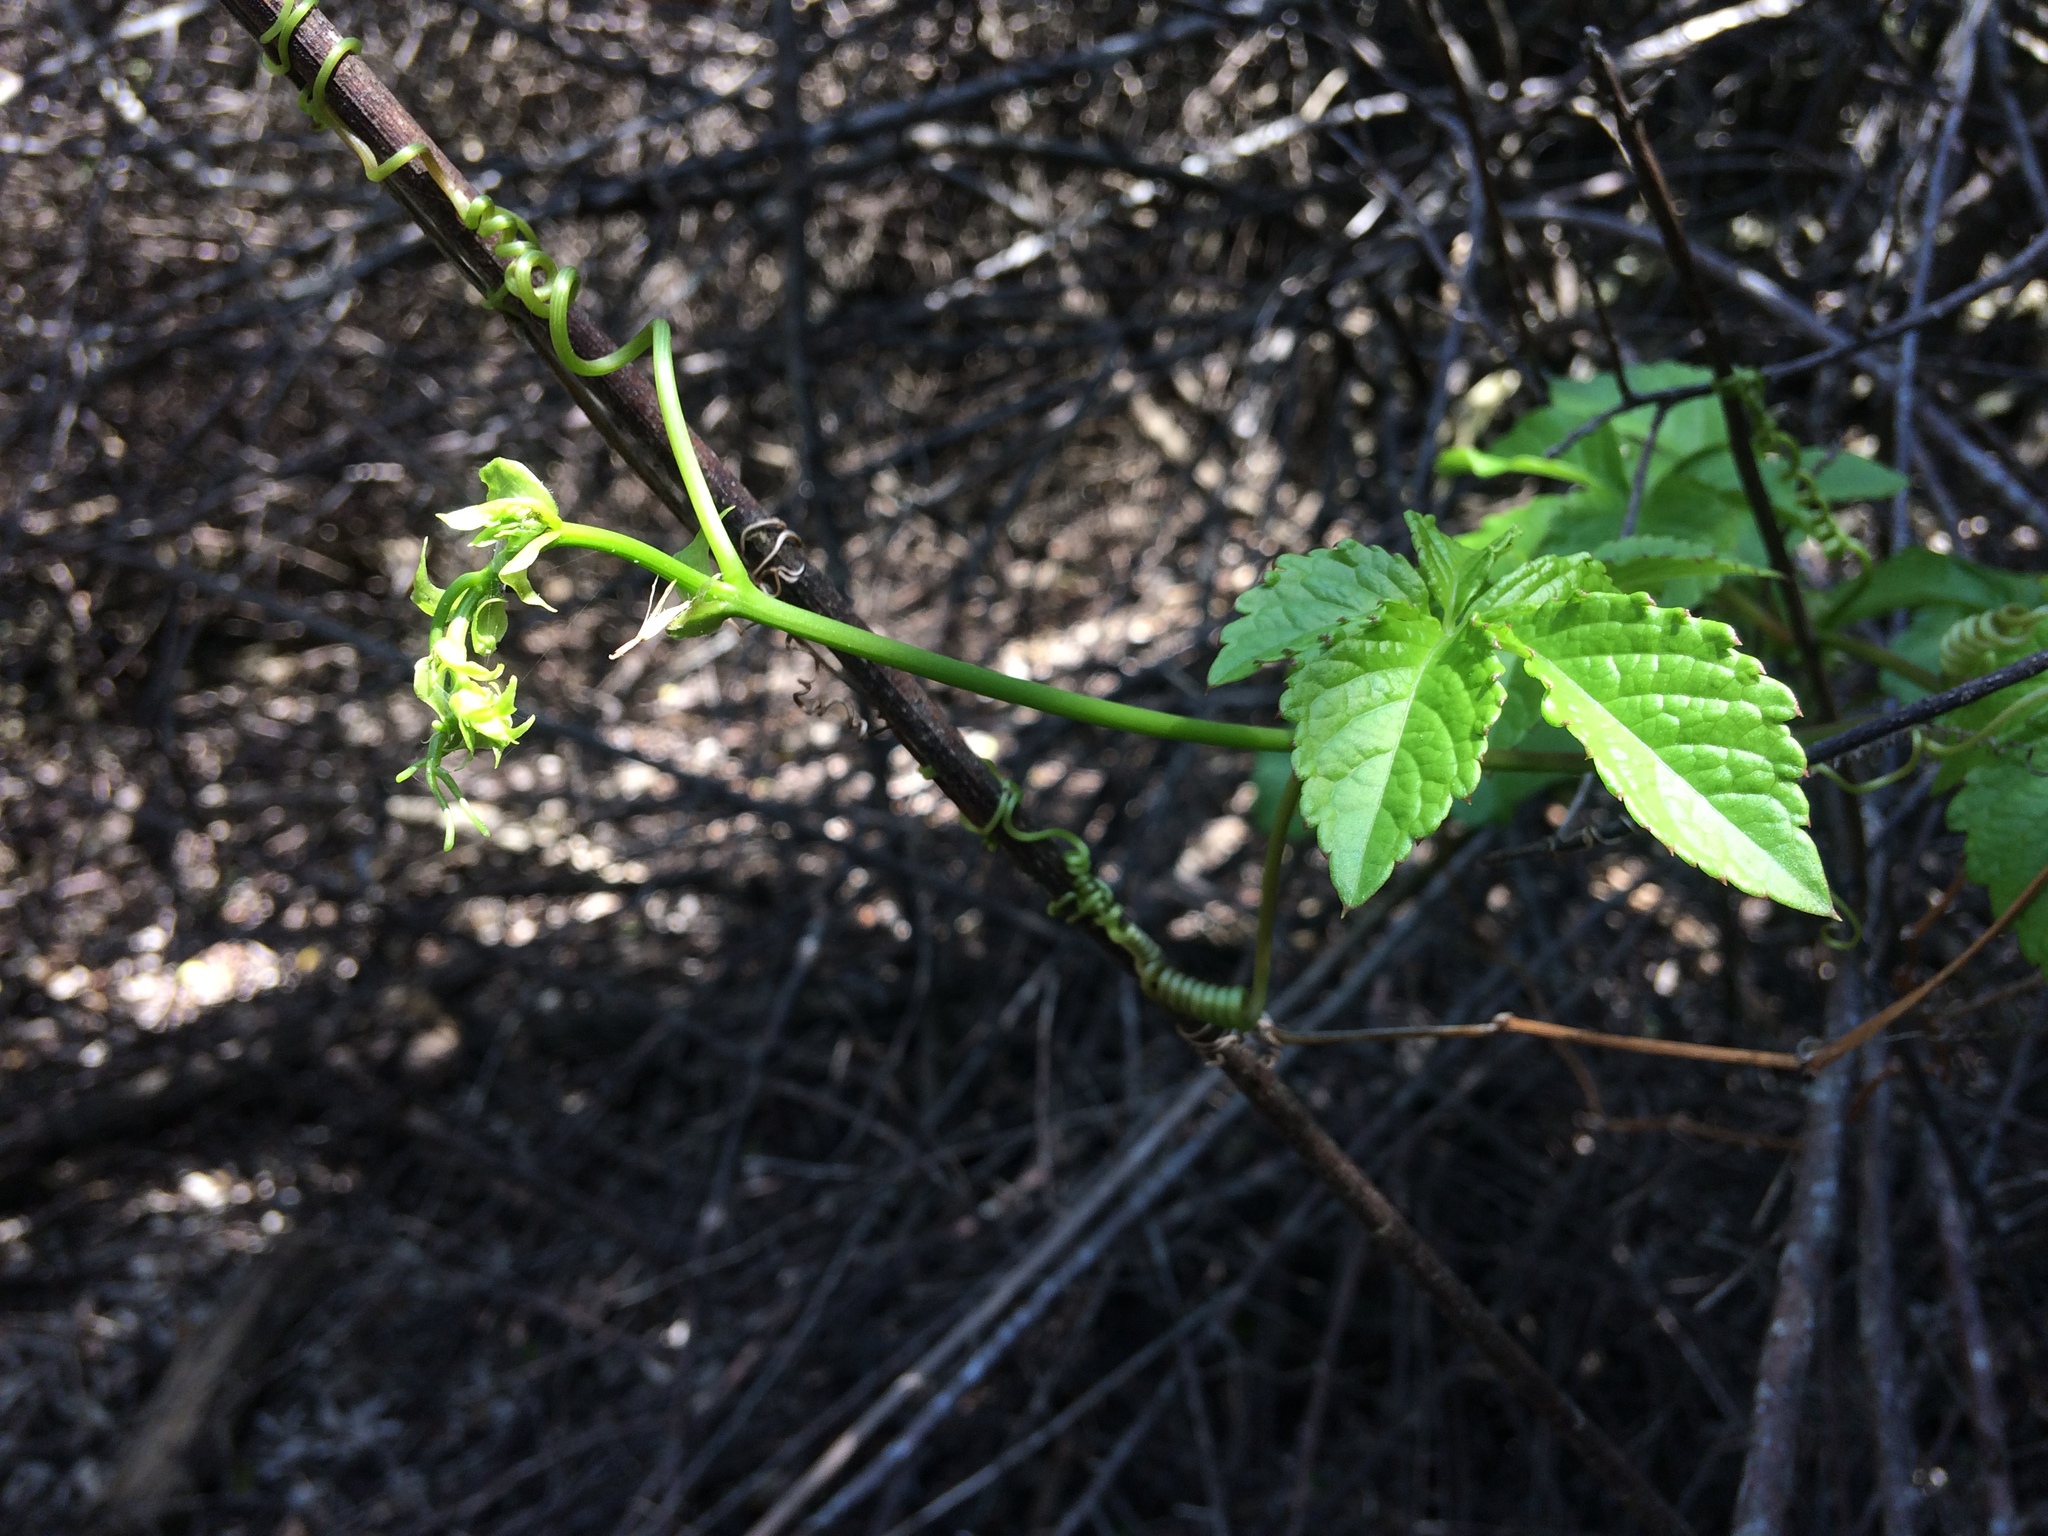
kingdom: Plantae
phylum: Tracheophyta
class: Magnoliopsida
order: Vitales
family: Vitaceae
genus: Cyphostemma
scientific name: Cyphostemma cirrhosum
